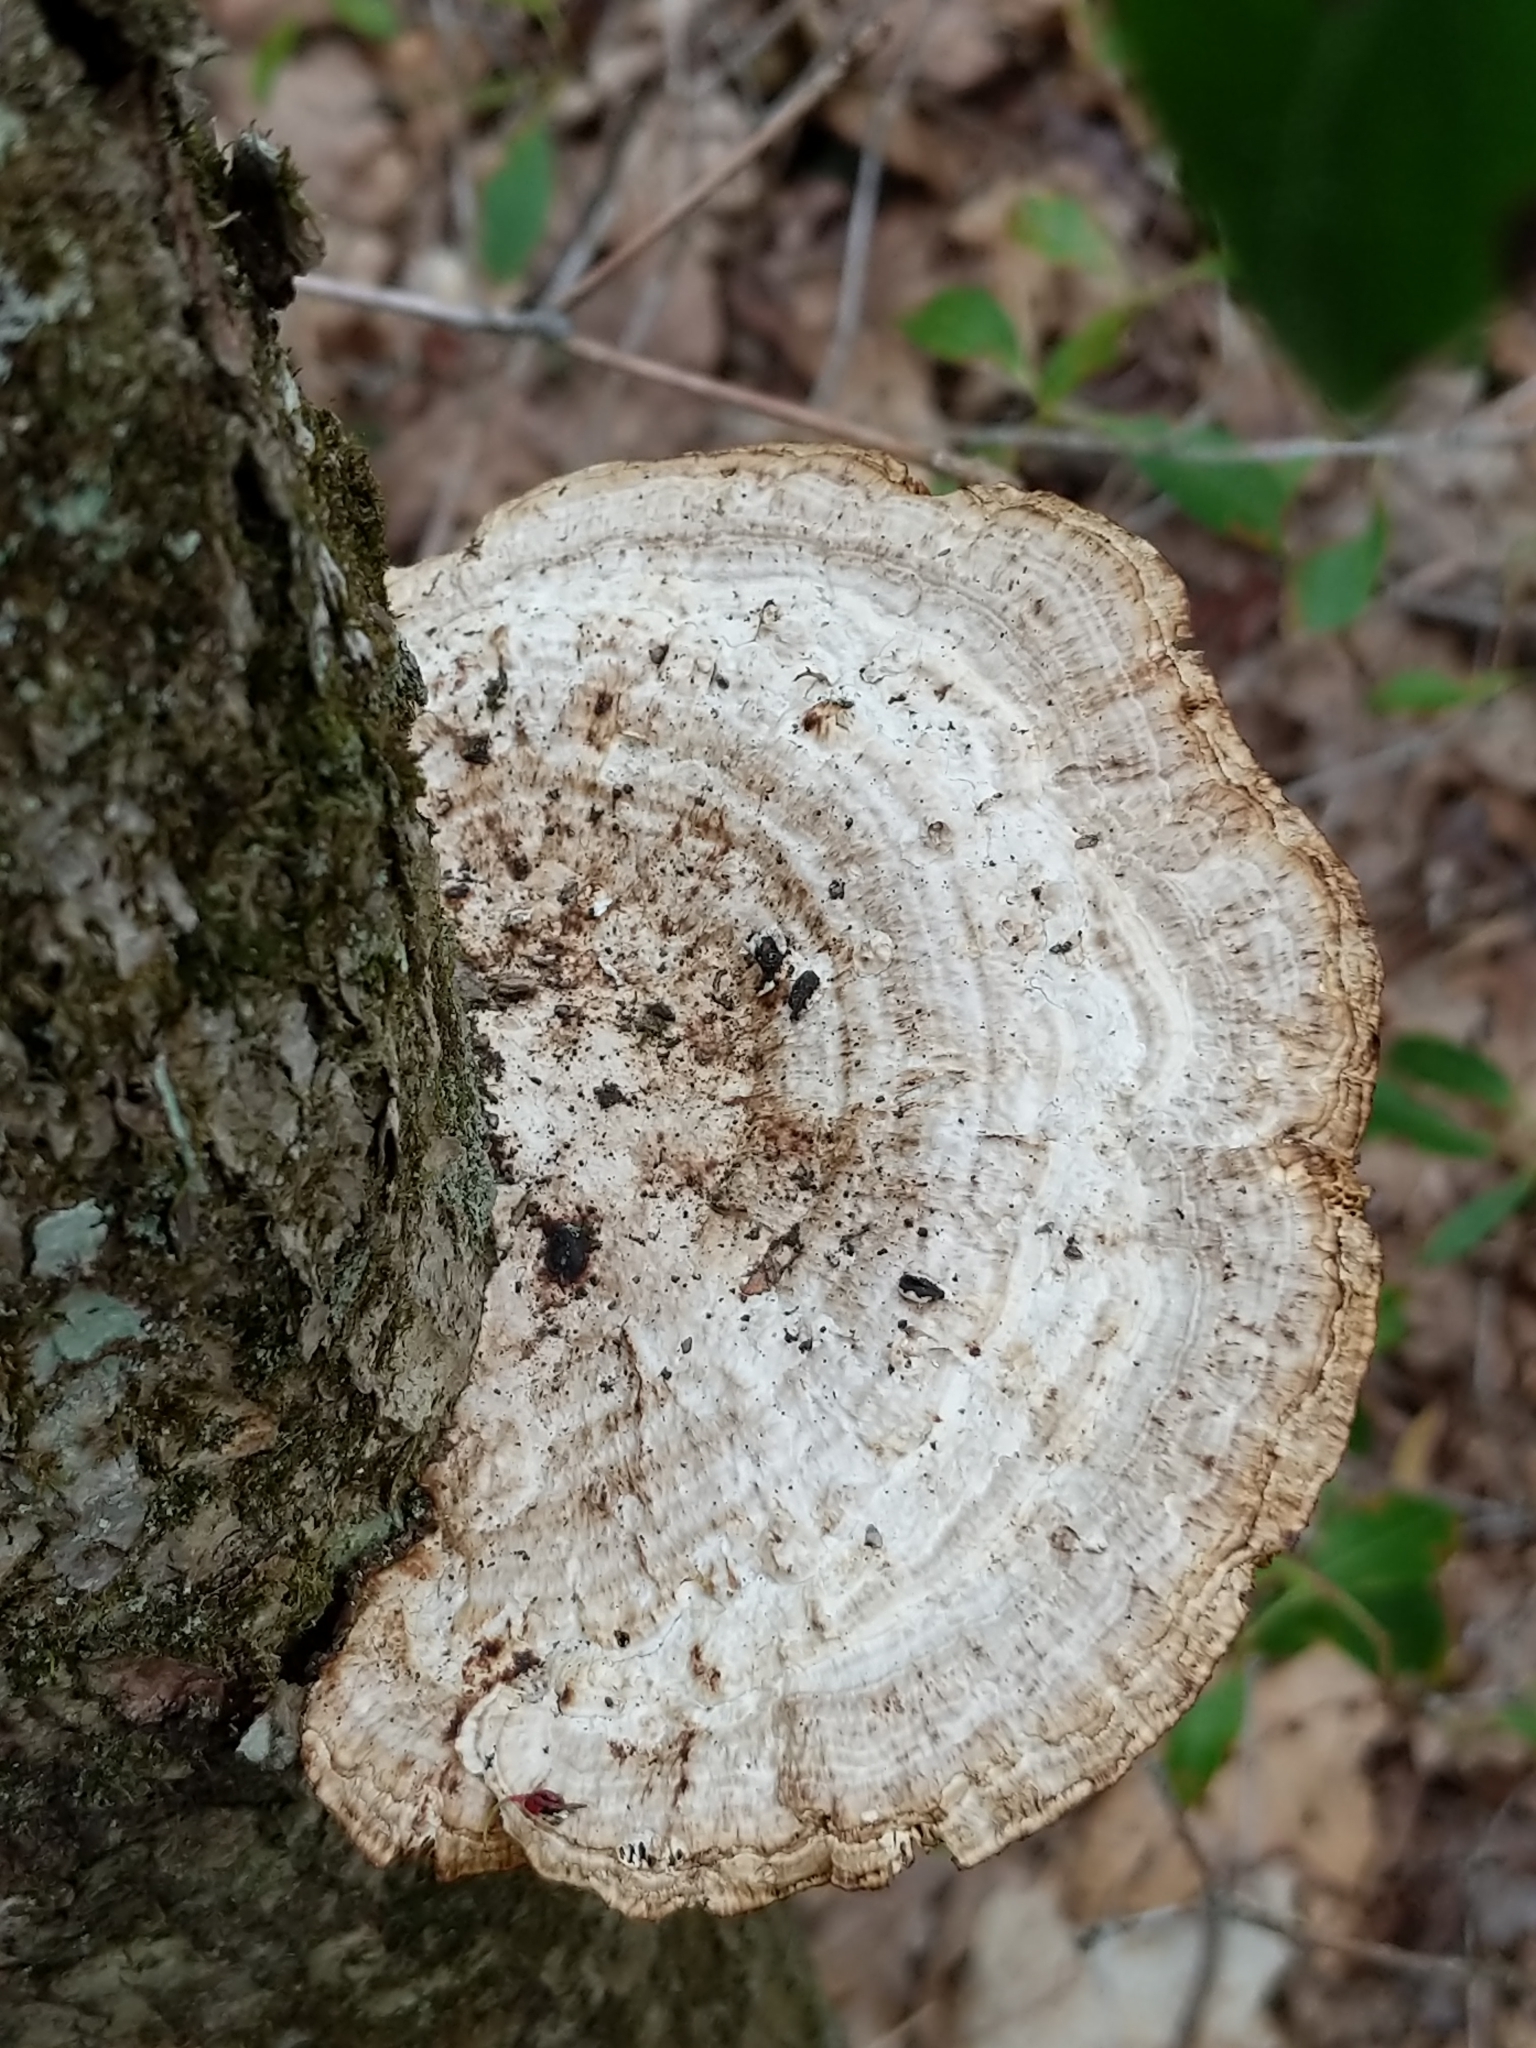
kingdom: Fungi
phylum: Basidiomycota
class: Agaricomycetes
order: Polyporales
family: Polyporaceae
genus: Daedaleopsis
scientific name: Daedaleopsis confragosa
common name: Blushing bracket
